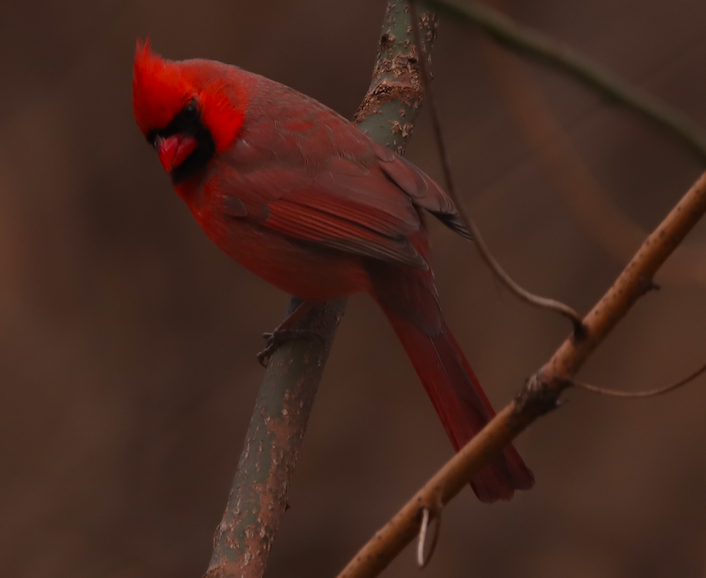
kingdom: Animalia
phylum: Chordata
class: Aves
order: Passeriformes
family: Cardinalidae
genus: Cardinalis
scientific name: Cardinalis cardinalis
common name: Northern cardinal
